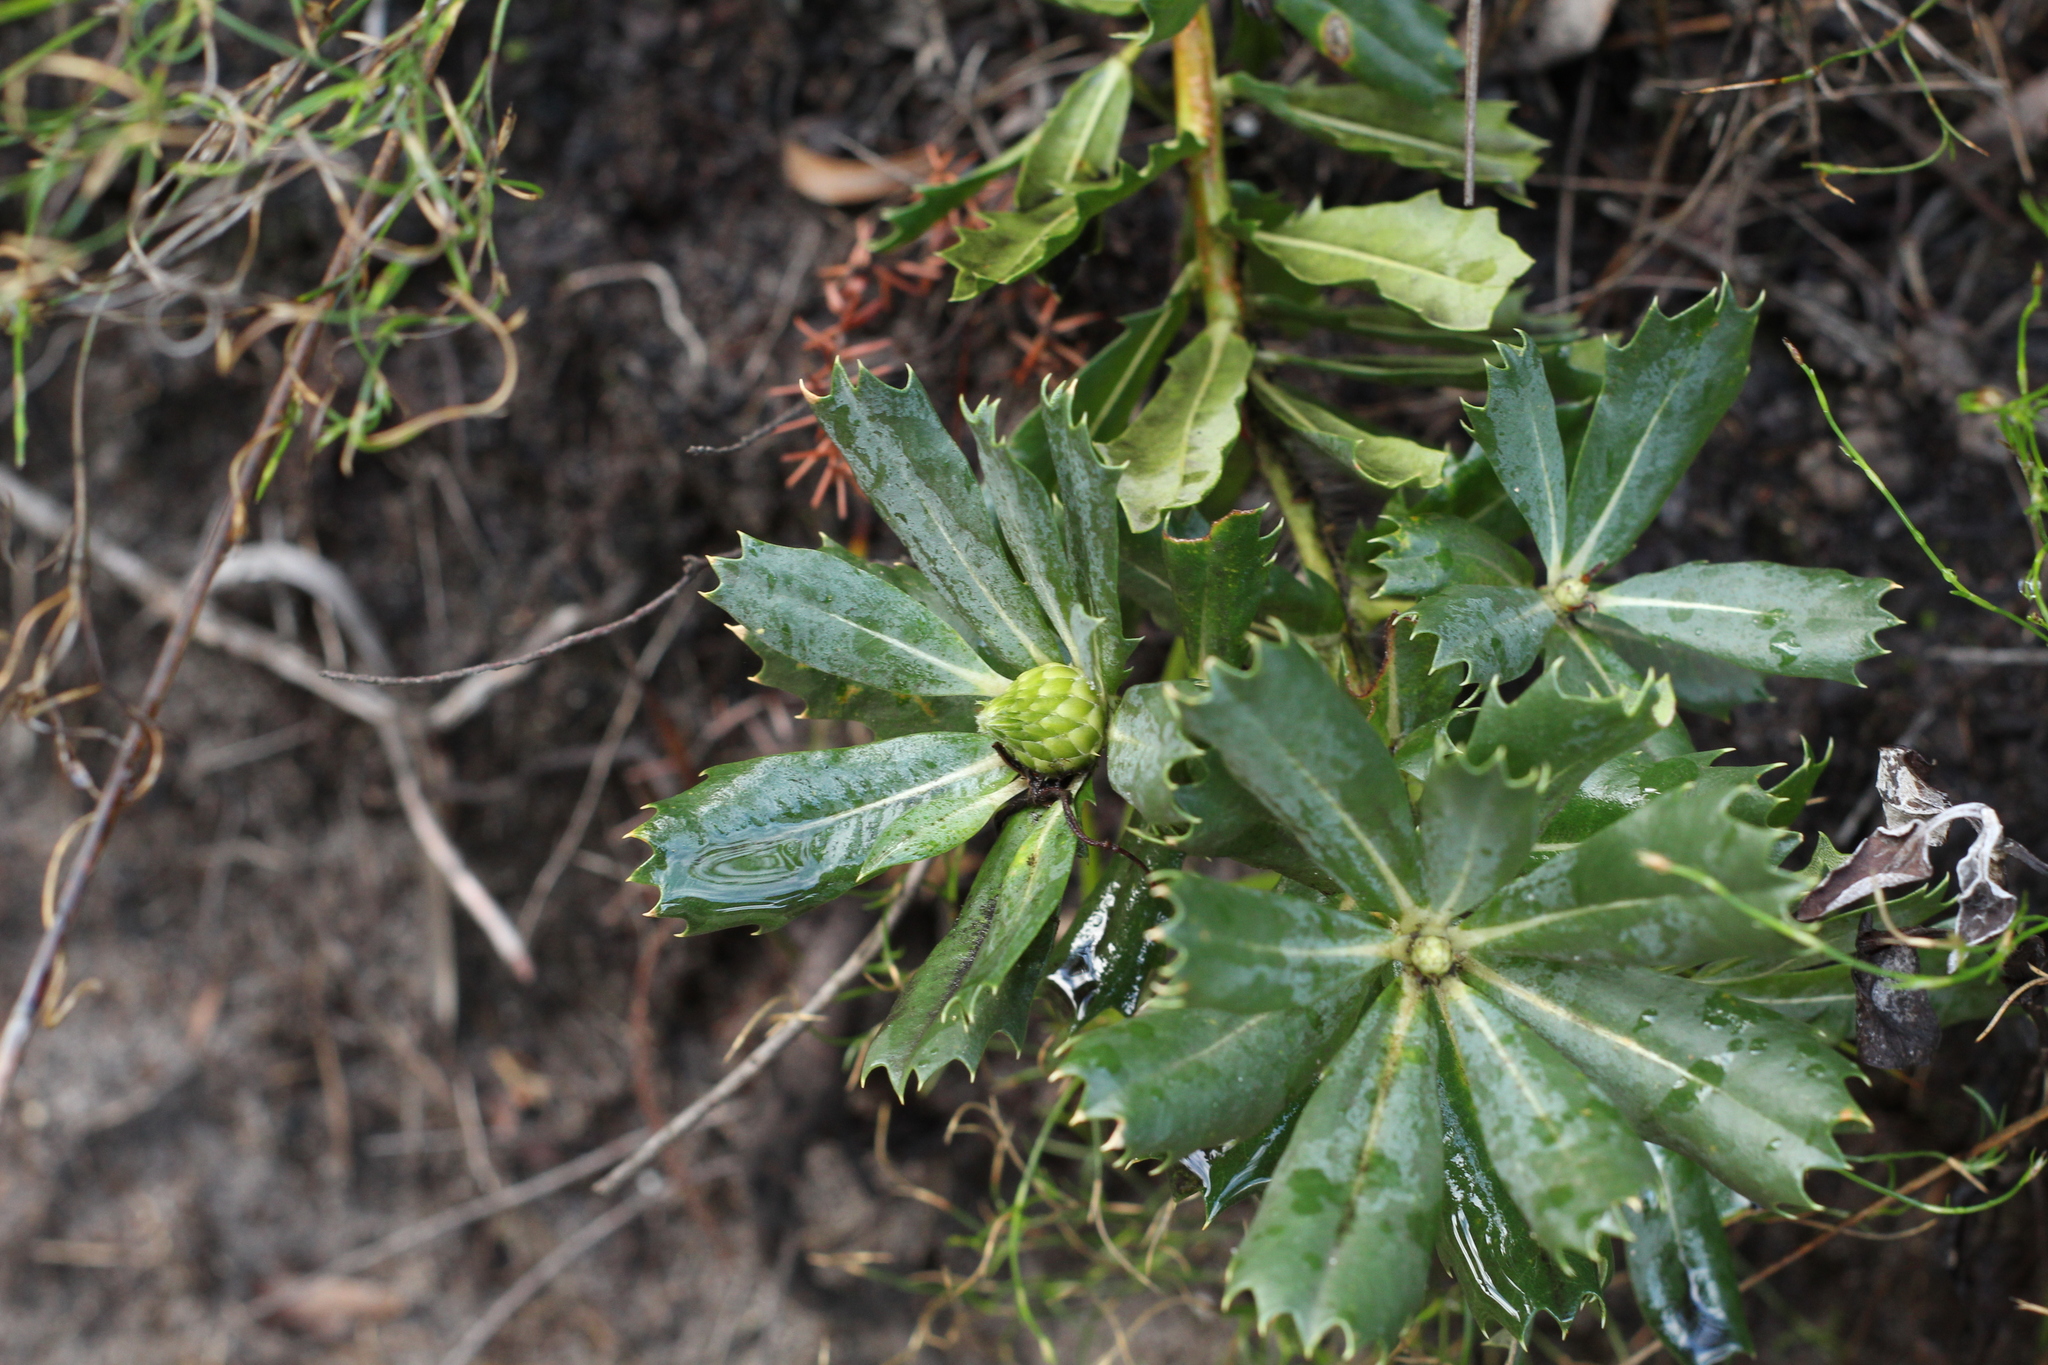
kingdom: Plantae
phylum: Tracheophyta
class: Magnoliopsida
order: Proteales
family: Proteaceae
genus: Banksia
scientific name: Banksia sessilis
